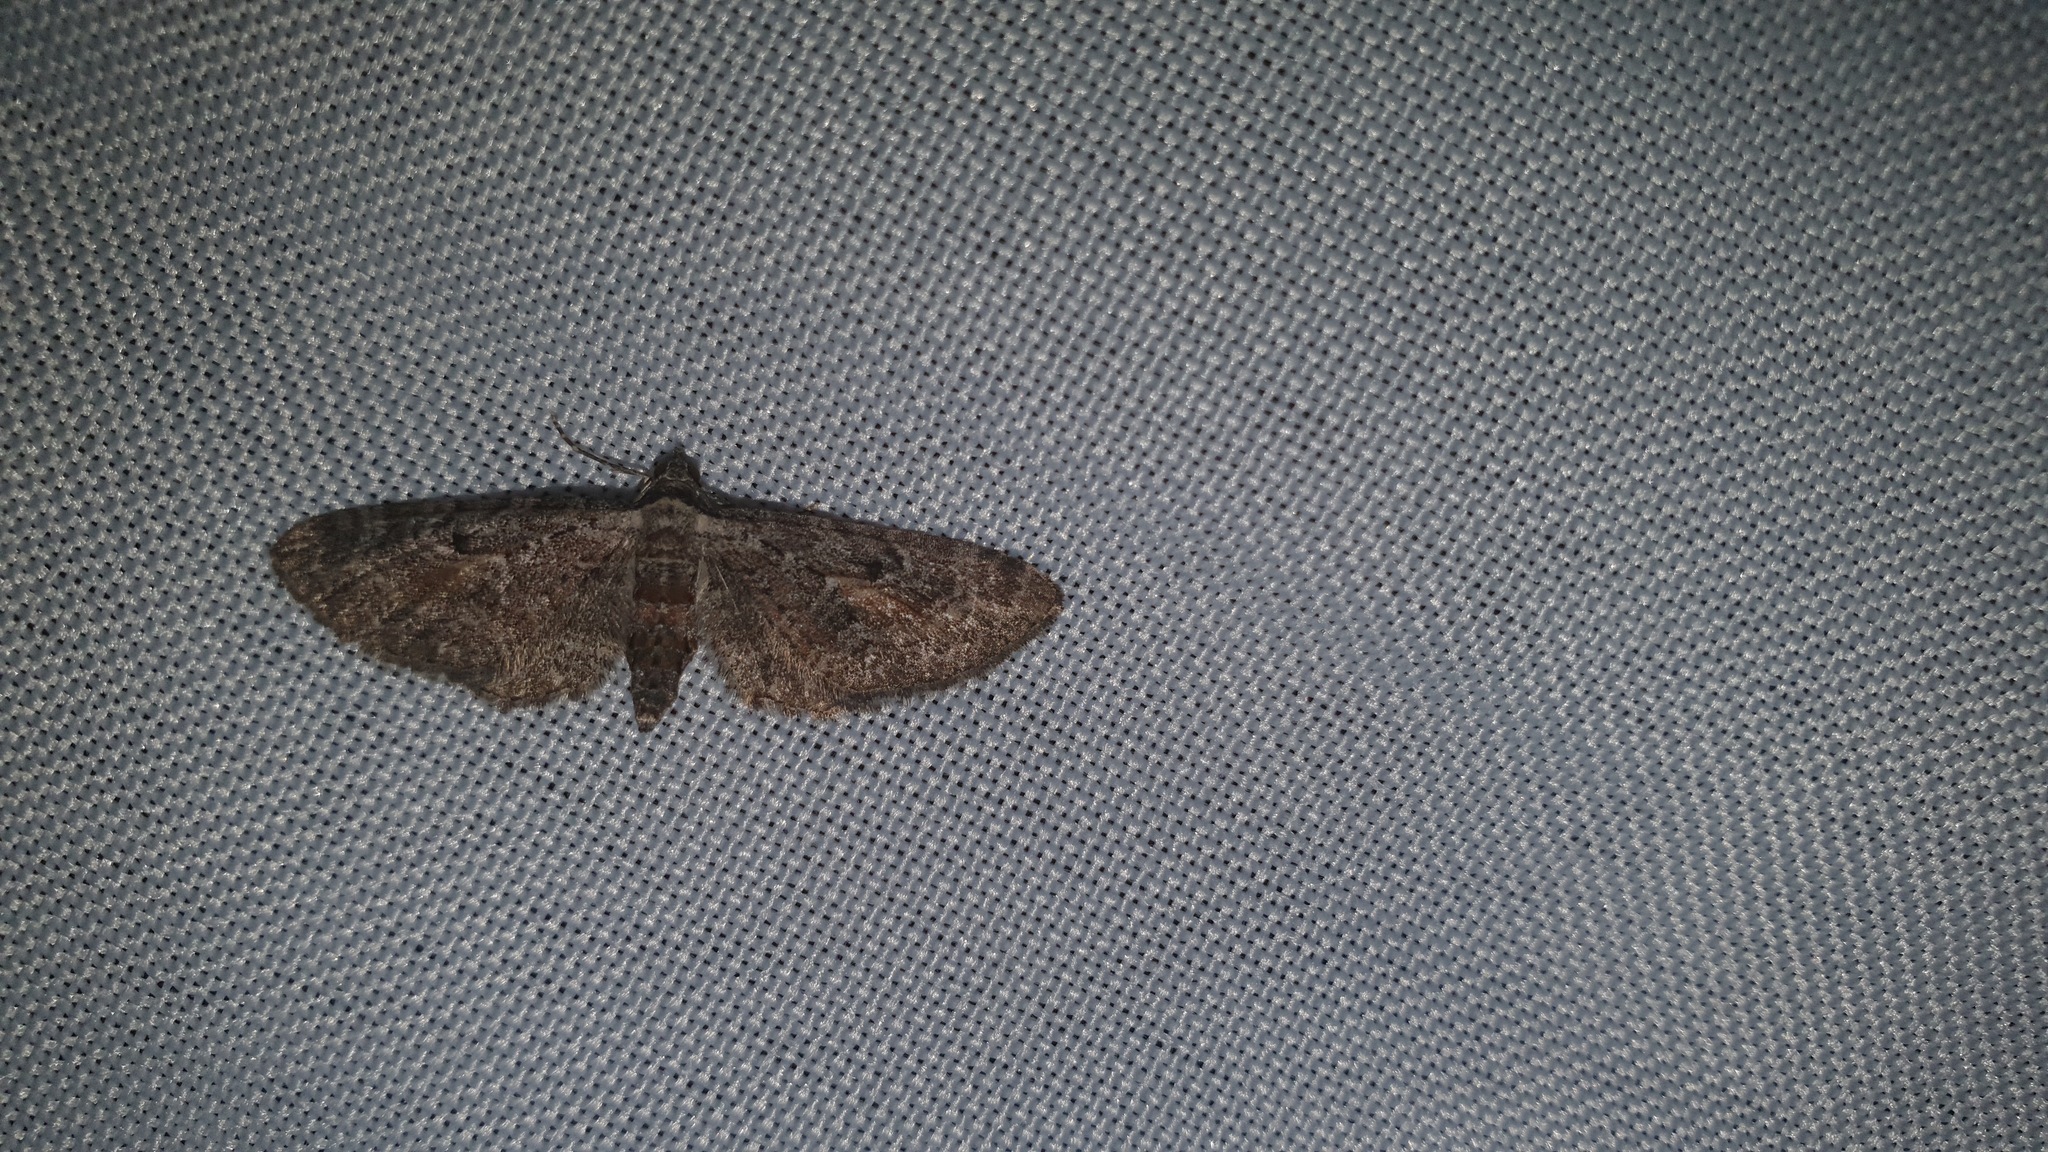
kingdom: Animalia
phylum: Arthropoda
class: Insecta
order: Lepidoptera
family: Geometridae
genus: Eupithecia
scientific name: Eupithecia icterata
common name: Tawny speckled pug
